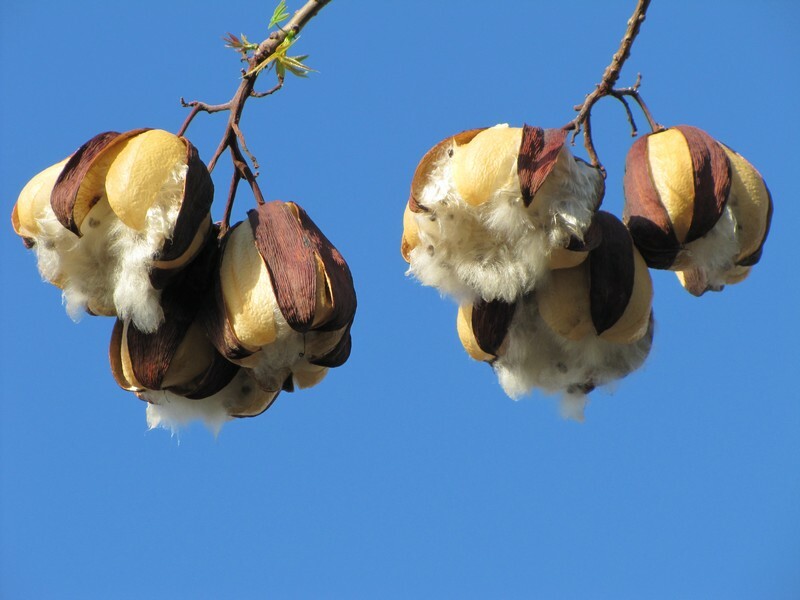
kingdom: Plantae
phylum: Tracheophyta
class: Magnoliopsida
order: Malvales
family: Cochlospermaceae
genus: Cochlospermum
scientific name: Cochlospermum gillivraei
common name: Cottontree
